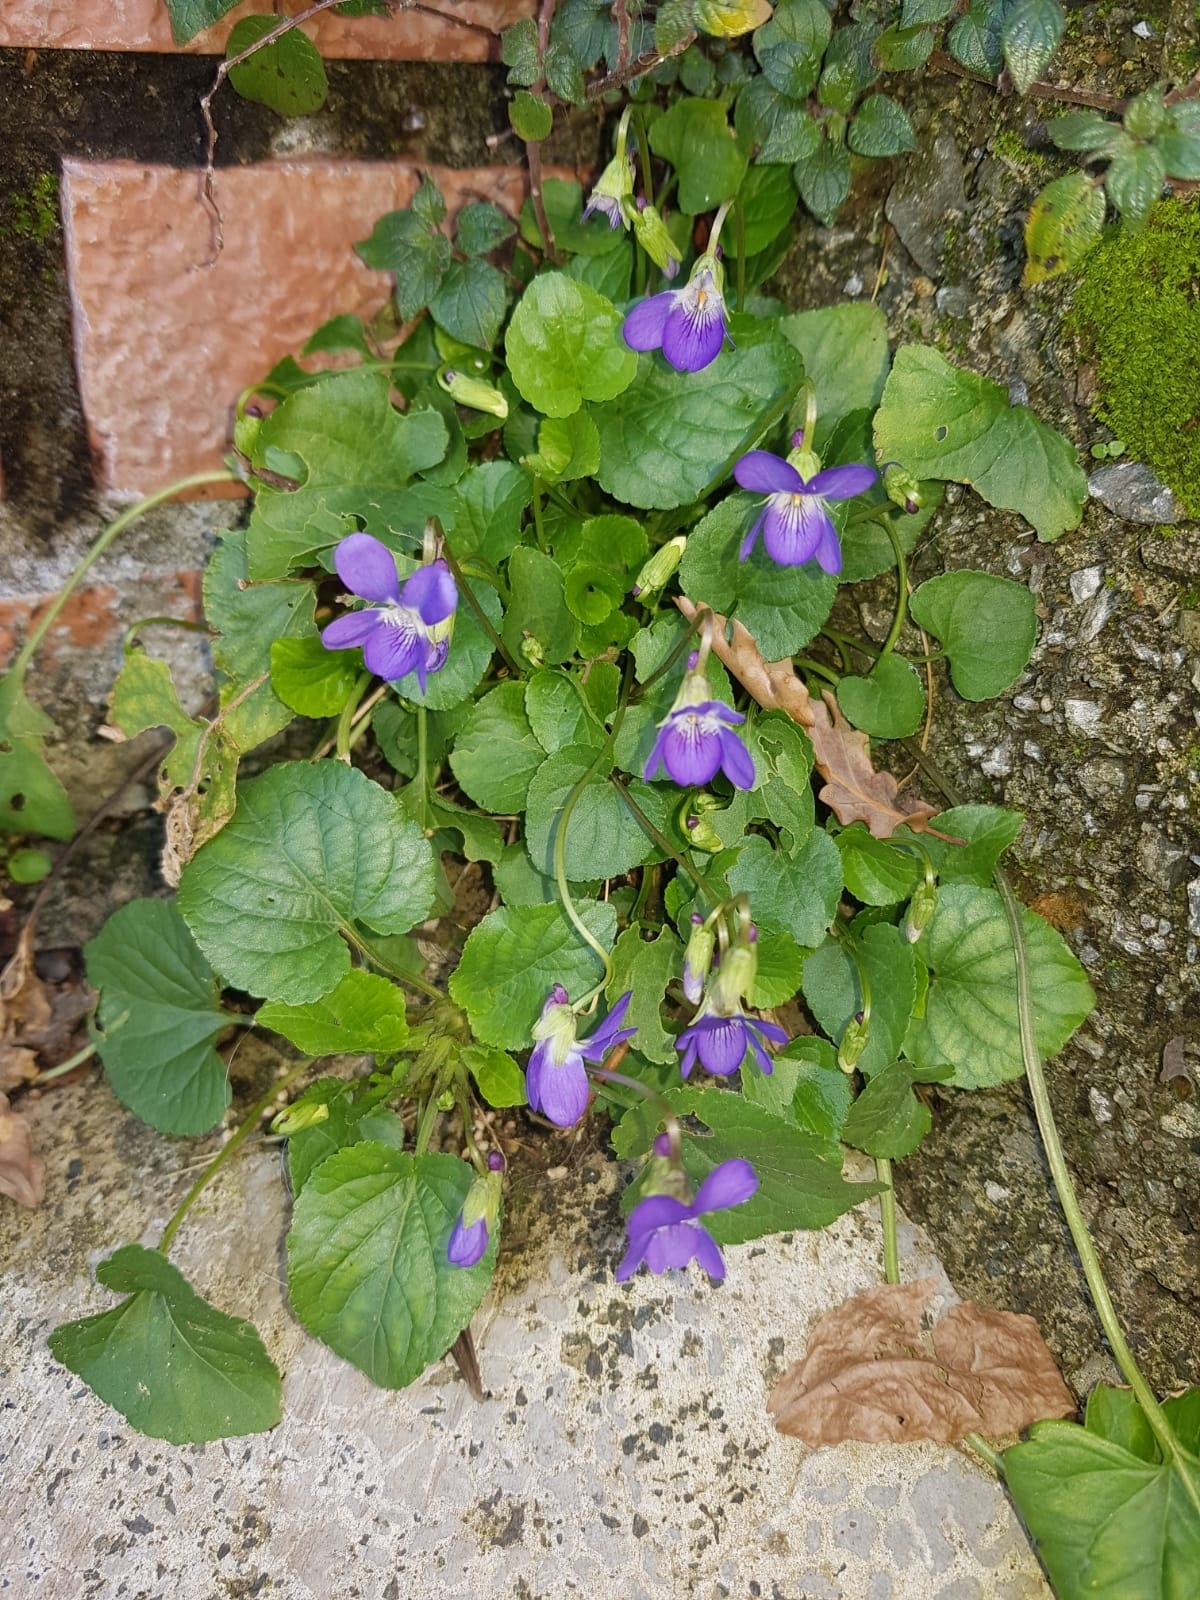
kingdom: Plantae
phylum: Tracheophyta
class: Magnoliopsida
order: Malpighiales
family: Violaceae
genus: Viola
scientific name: Viola odorata
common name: Sweet violet
